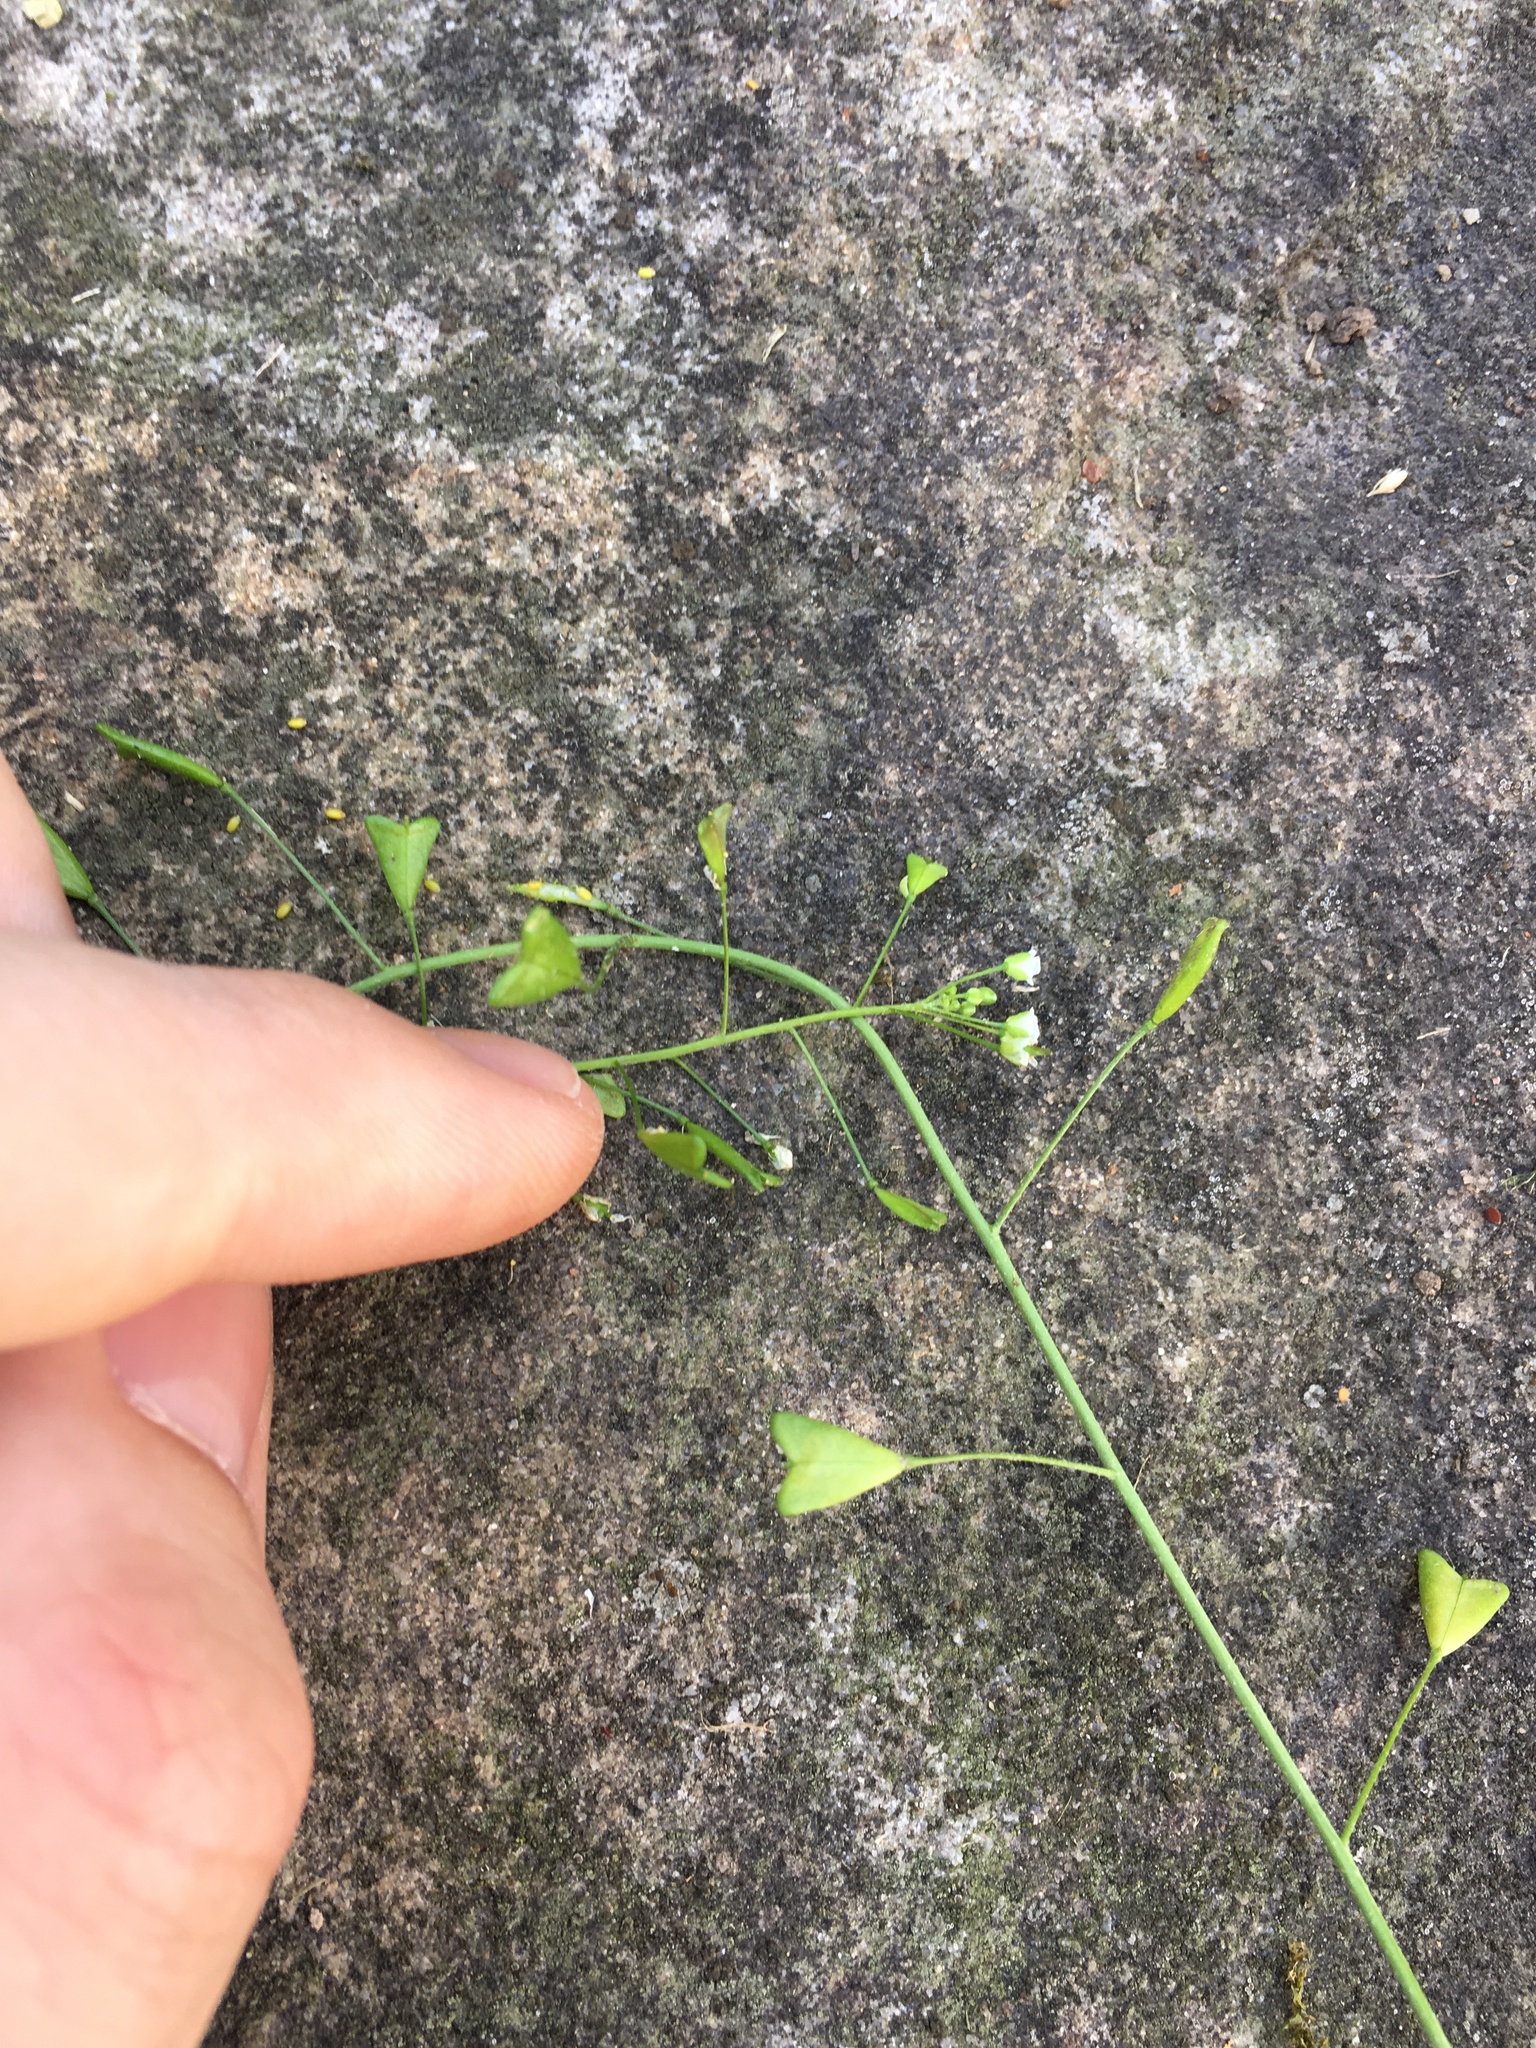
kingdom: Plantae
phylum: Tracheophyta
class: Magnoliopsida
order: Brassicales
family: Brassicaceae
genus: Capsella
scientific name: Capsella bursa-pastoris
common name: Shepherd's purse
